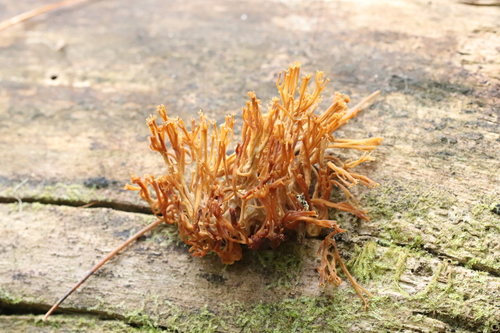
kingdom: Fungi
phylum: Basidiomycota
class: Agaricomycetes
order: Russulales
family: Auriscalpiaceae
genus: Artomyces
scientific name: Artomyces pyxidatus
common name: Crown-tipped coral fungus
